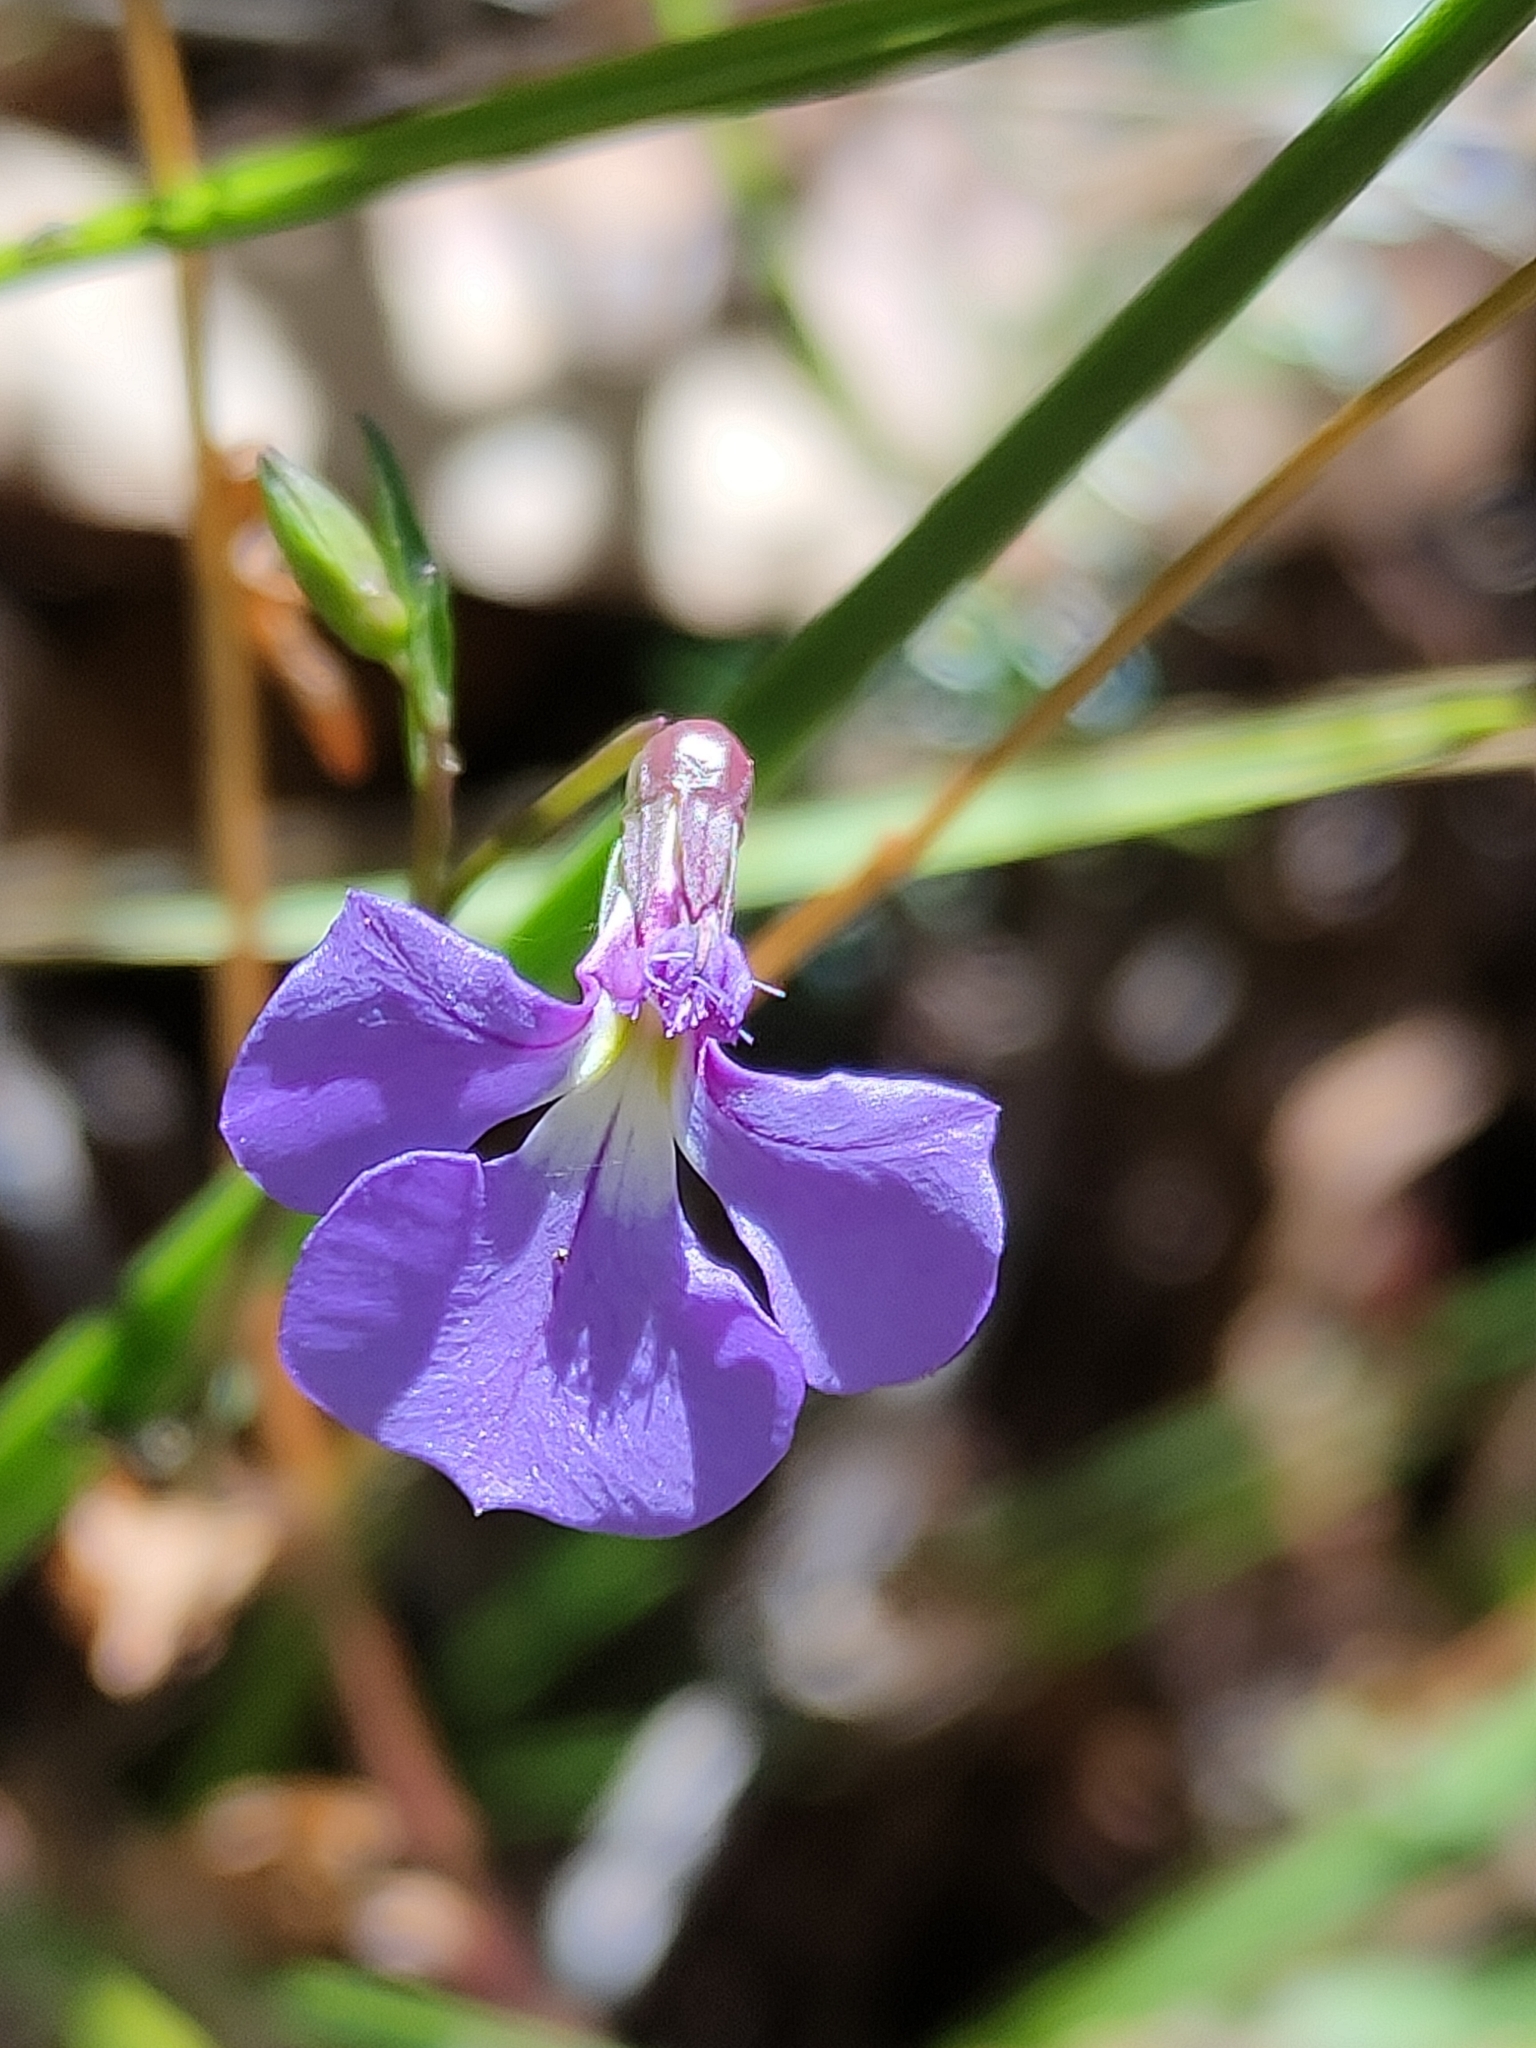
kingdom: Plantae
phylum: Tracheophyta
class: Magnoliopsida
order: Asterales
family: Campanulaceae
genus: Lobelia
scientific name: Lobelia andrewsii
